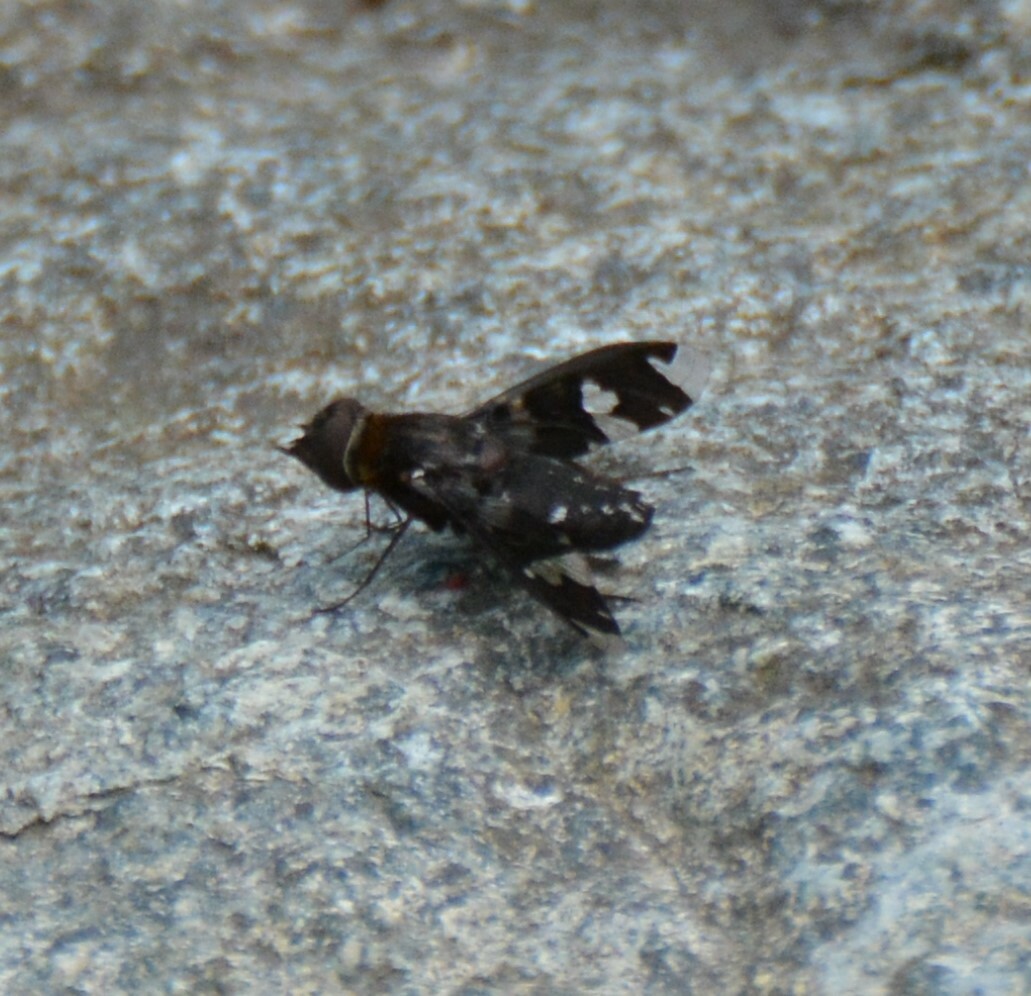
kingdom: Animalia
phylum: Arthropoda
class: Insecta
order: Diptera
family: Bombyliidae
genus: Exoprosopa
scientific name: Exoprosopa decora
